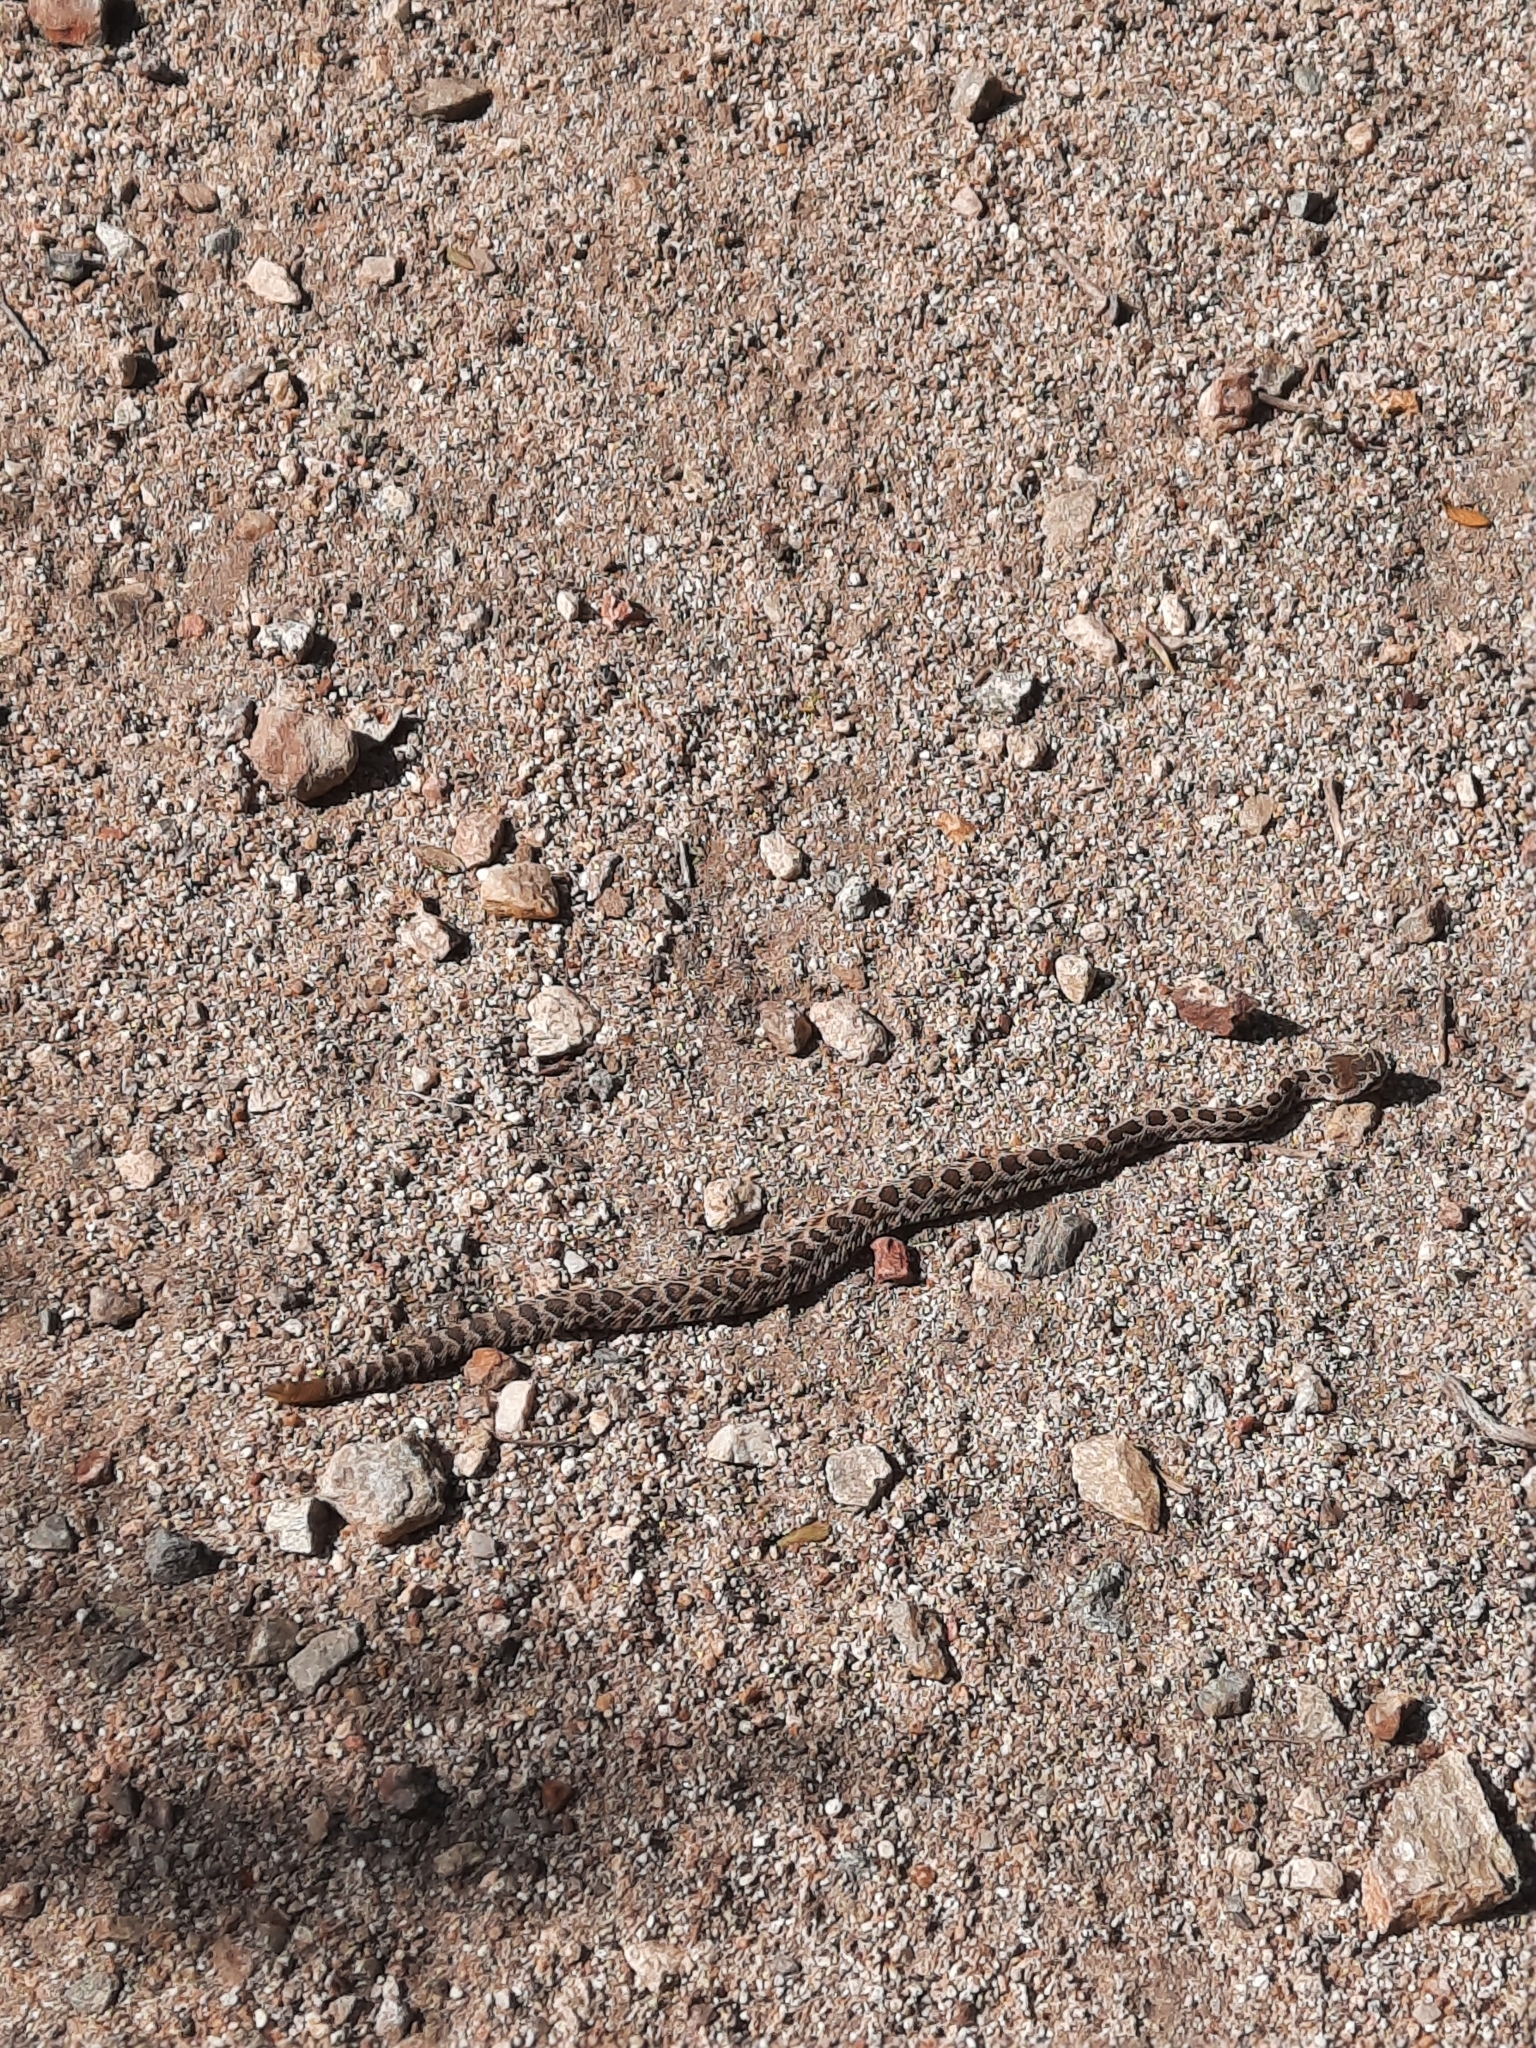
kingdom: Animalia
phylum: Chordata
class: Squamata
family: Viperidae
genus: Crotalus
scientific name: Crotalus oreganus
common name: Abyssus
